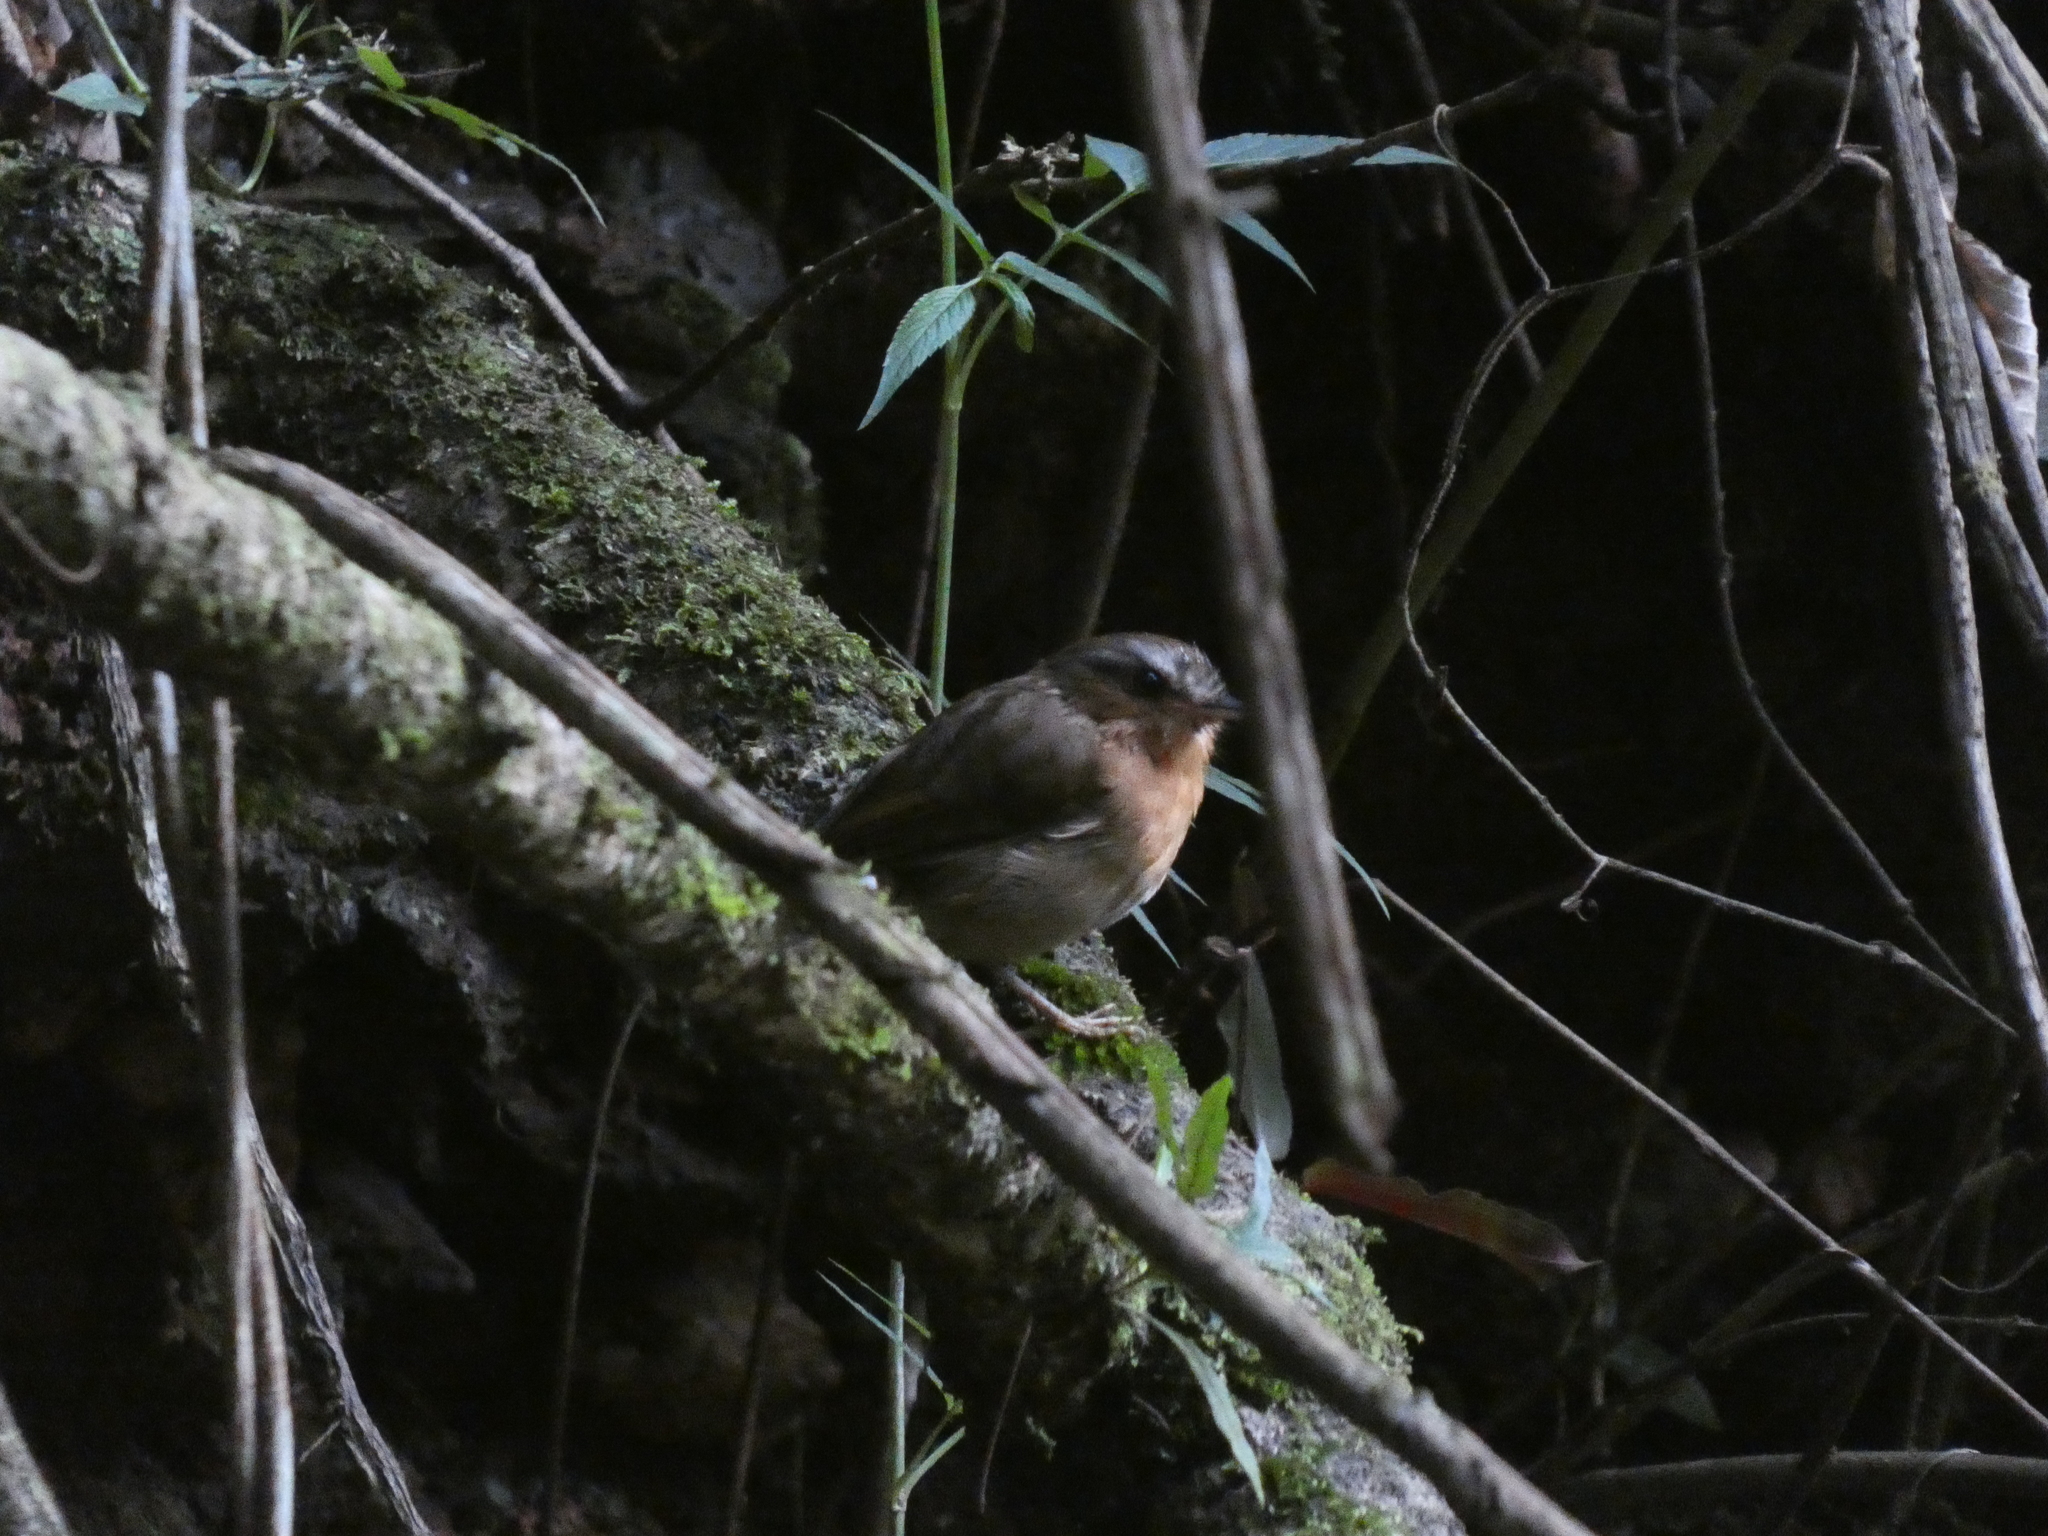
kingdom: Animalia
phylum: Chordata
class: Aves
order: Passeriformes
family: Conopophagidae
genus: Conopophaga
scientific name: Conopophaga lineata
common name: Rufous gnateater
